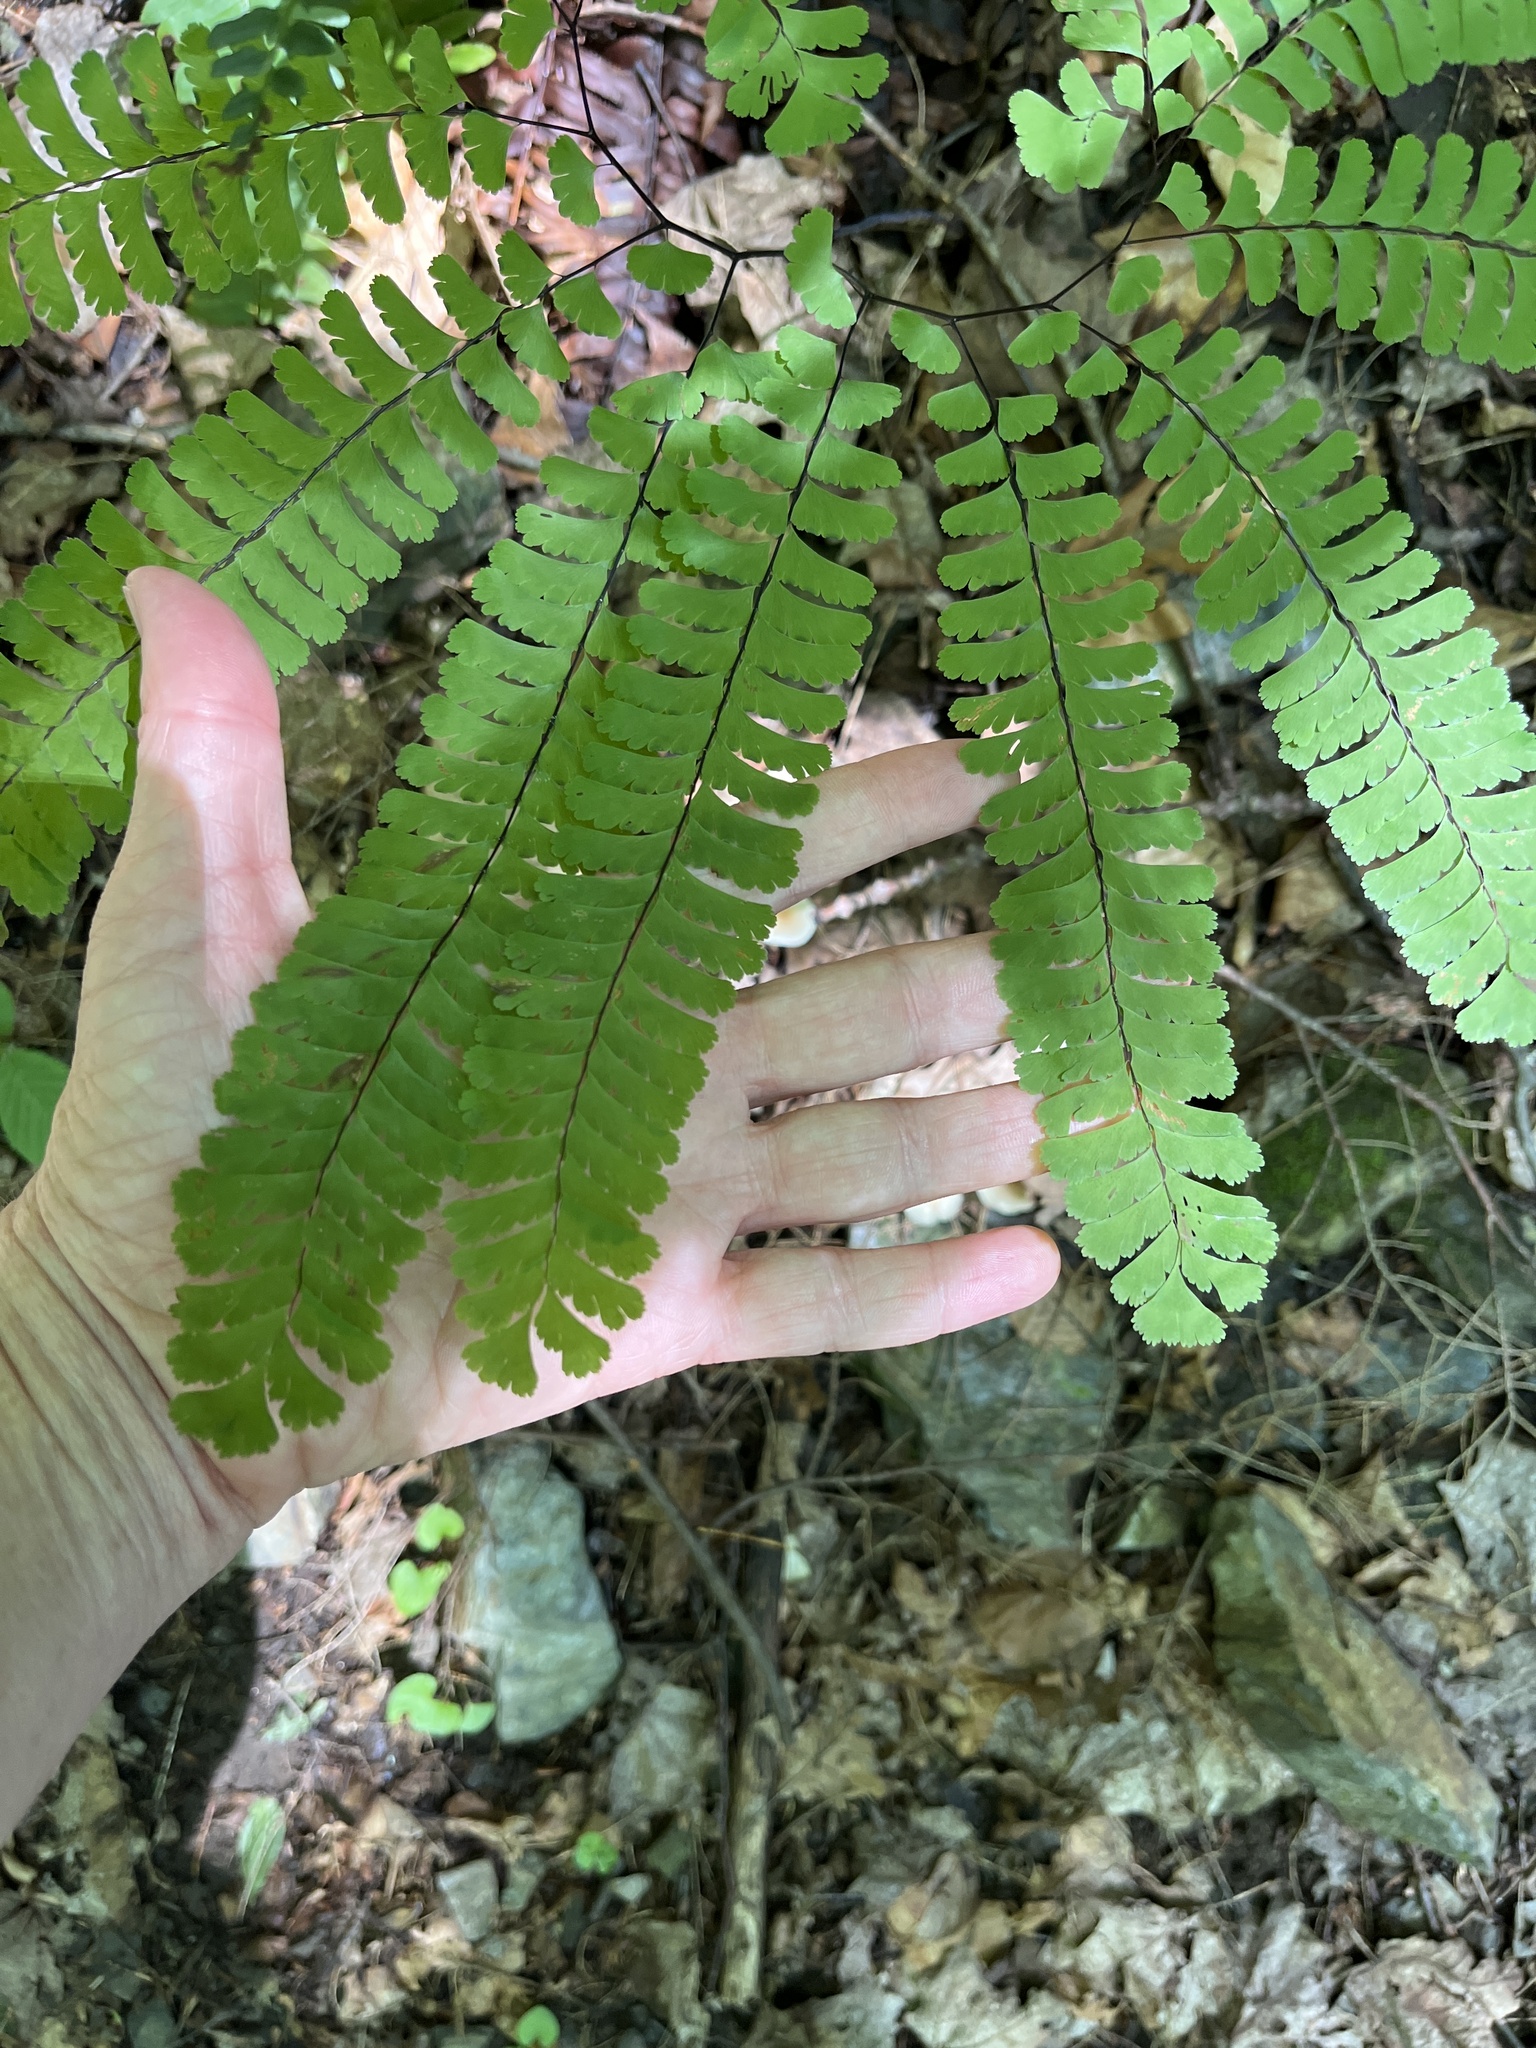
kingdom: Plantae
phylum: Tracheophyta
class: Polypodiopsida
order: Polypodiales
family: Pteridaceae
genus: Adiantum
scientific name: Adiantum pedatum
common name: Five-finger fern
